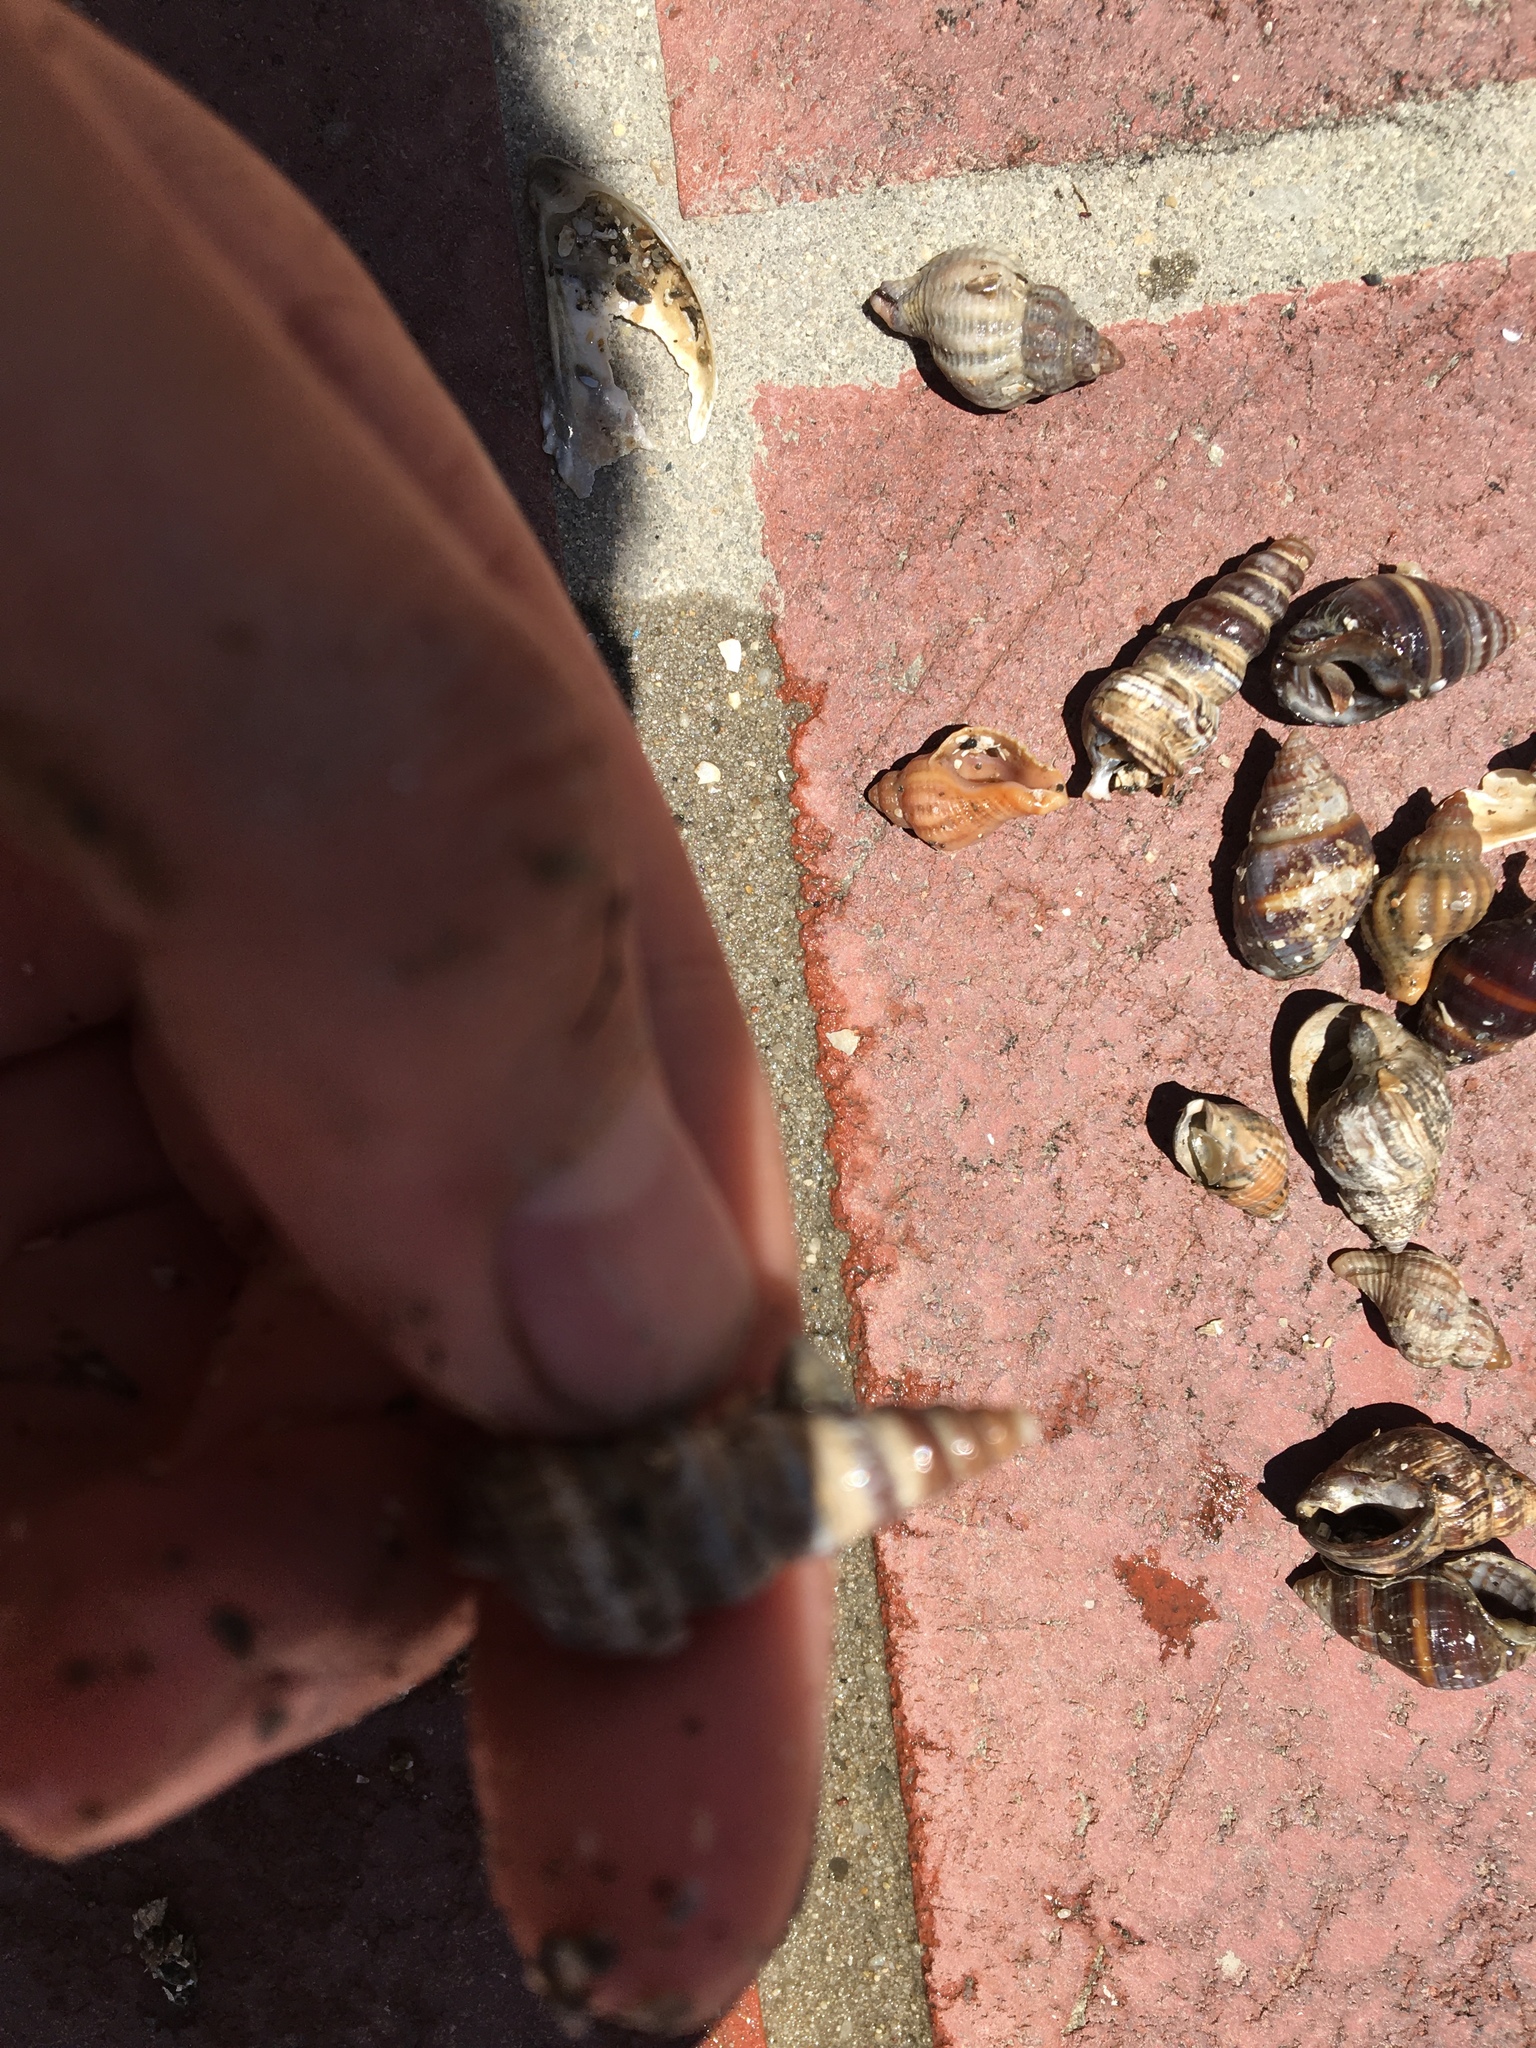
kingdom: Animalia
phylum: Mollusca
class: Gastropoda
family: Potamididae
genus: Cerithideopsis
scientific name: Cerithideopsis californica
